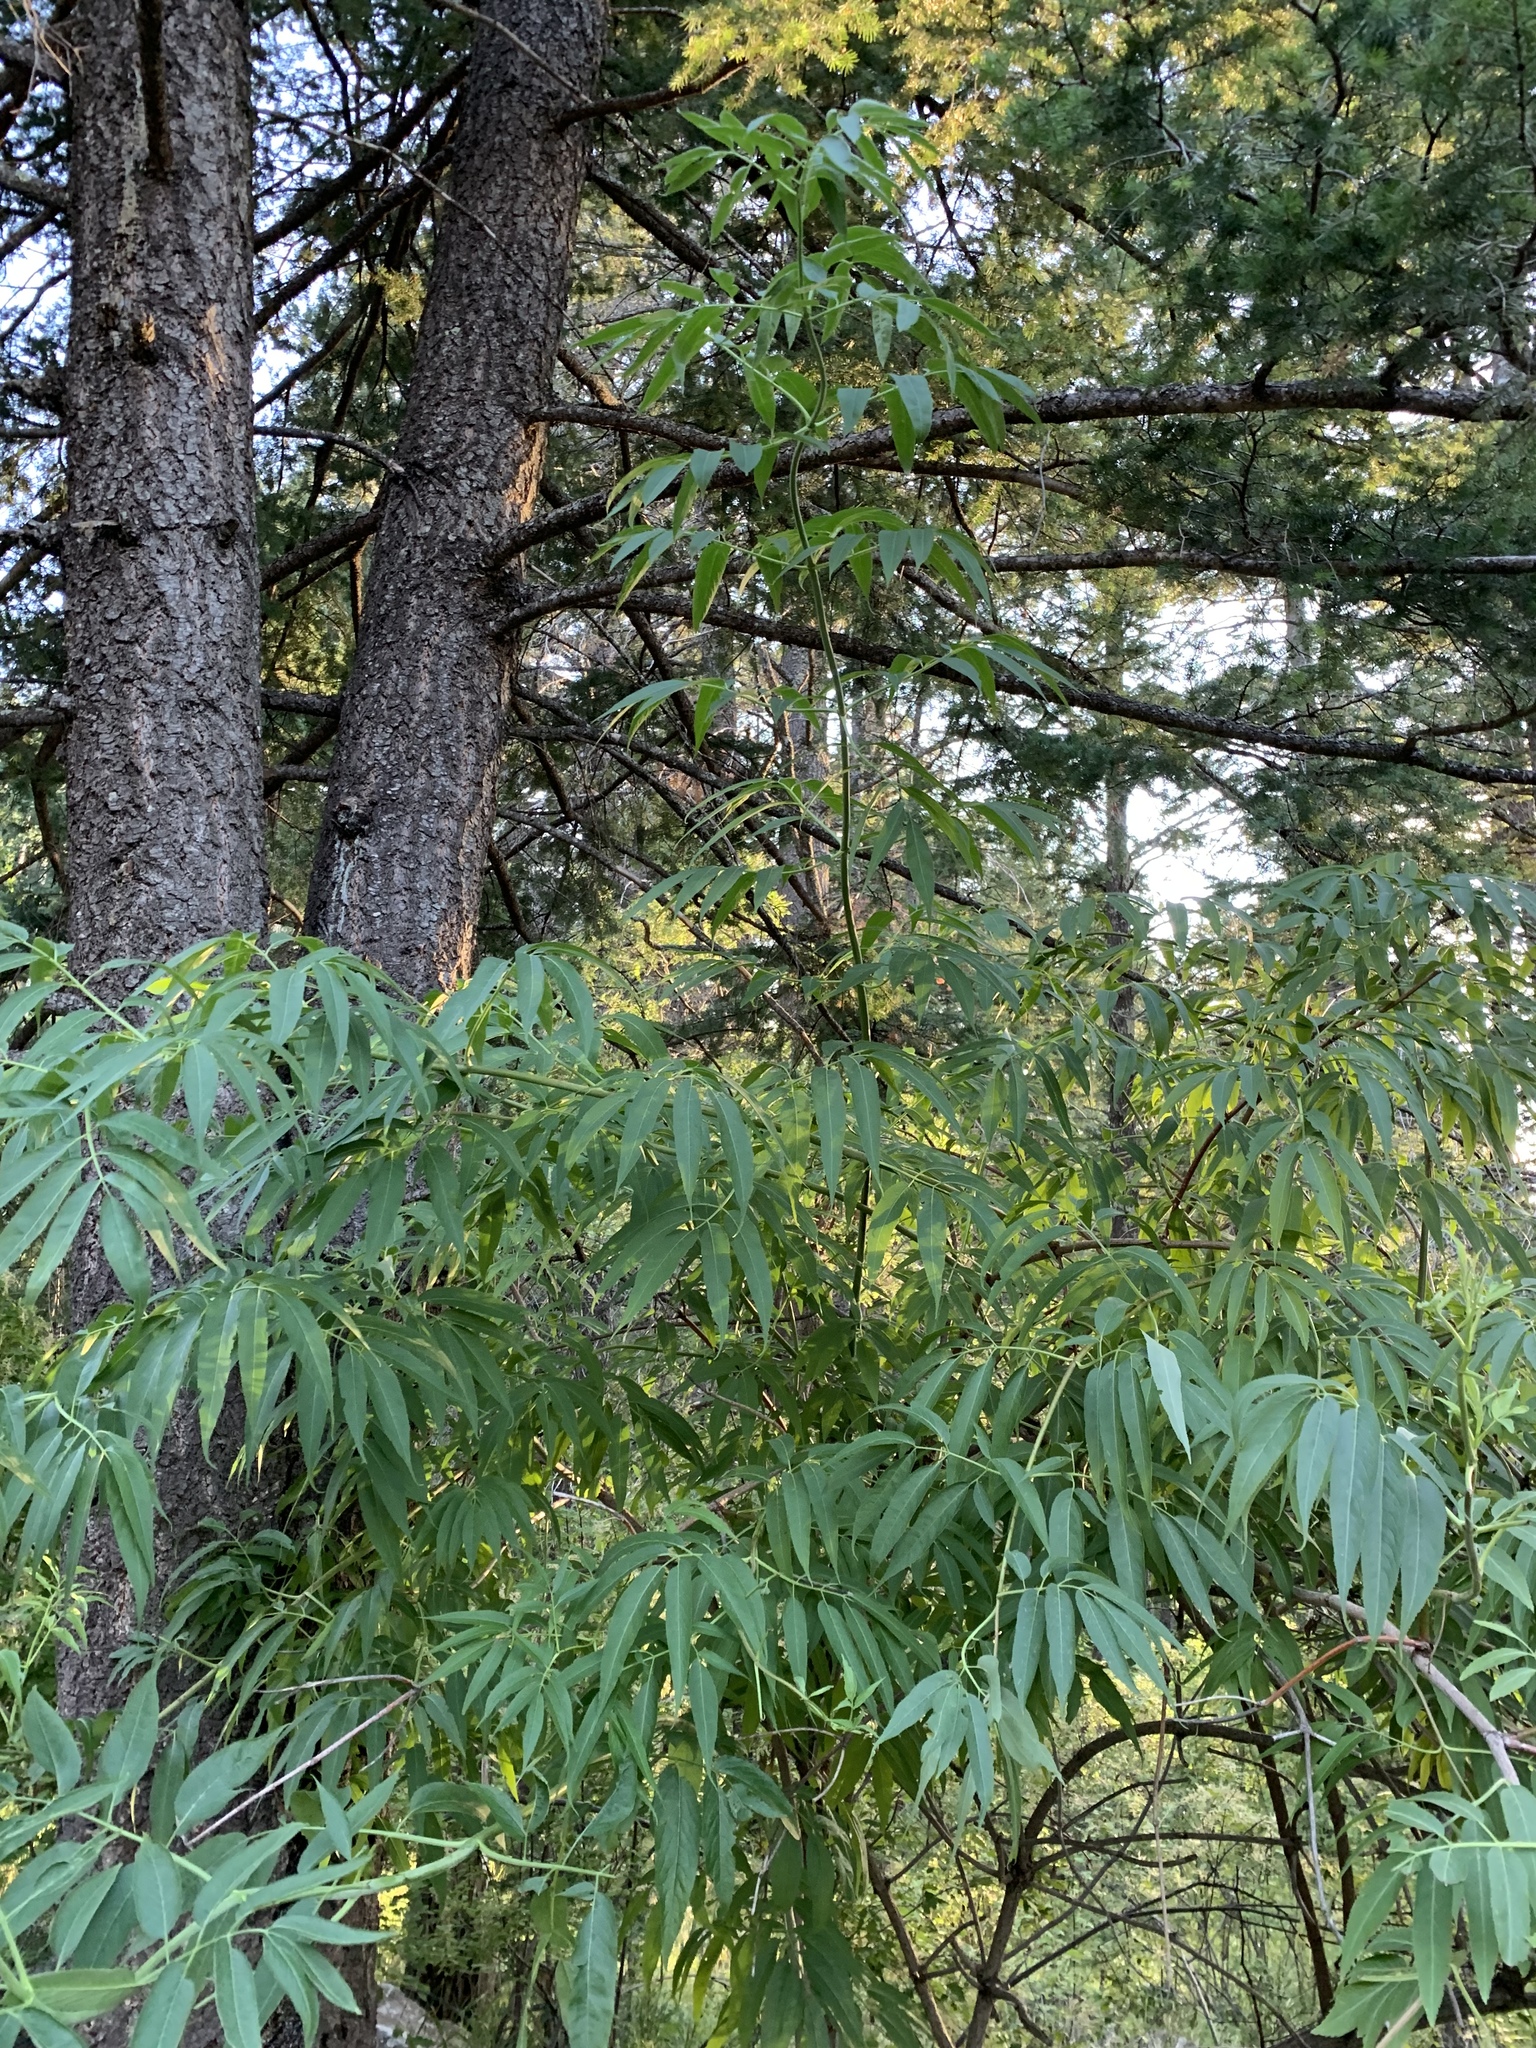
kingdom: Plantae
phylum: Tracheophyta
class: Magnoliopsida
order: Dipsacales
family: Viburnaceae
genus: Sambucus
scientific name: Sambucus cerulea
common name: Blue elder
